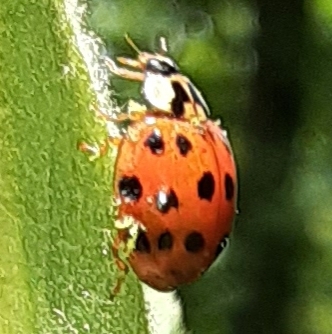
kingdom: Fungi
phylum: Ascomycota
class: Laboulbeniomycetes
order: Laboulbeniales
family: Laboulbeniaceae
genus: Hesperomyces
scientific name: Hesperomyces harmoniae
